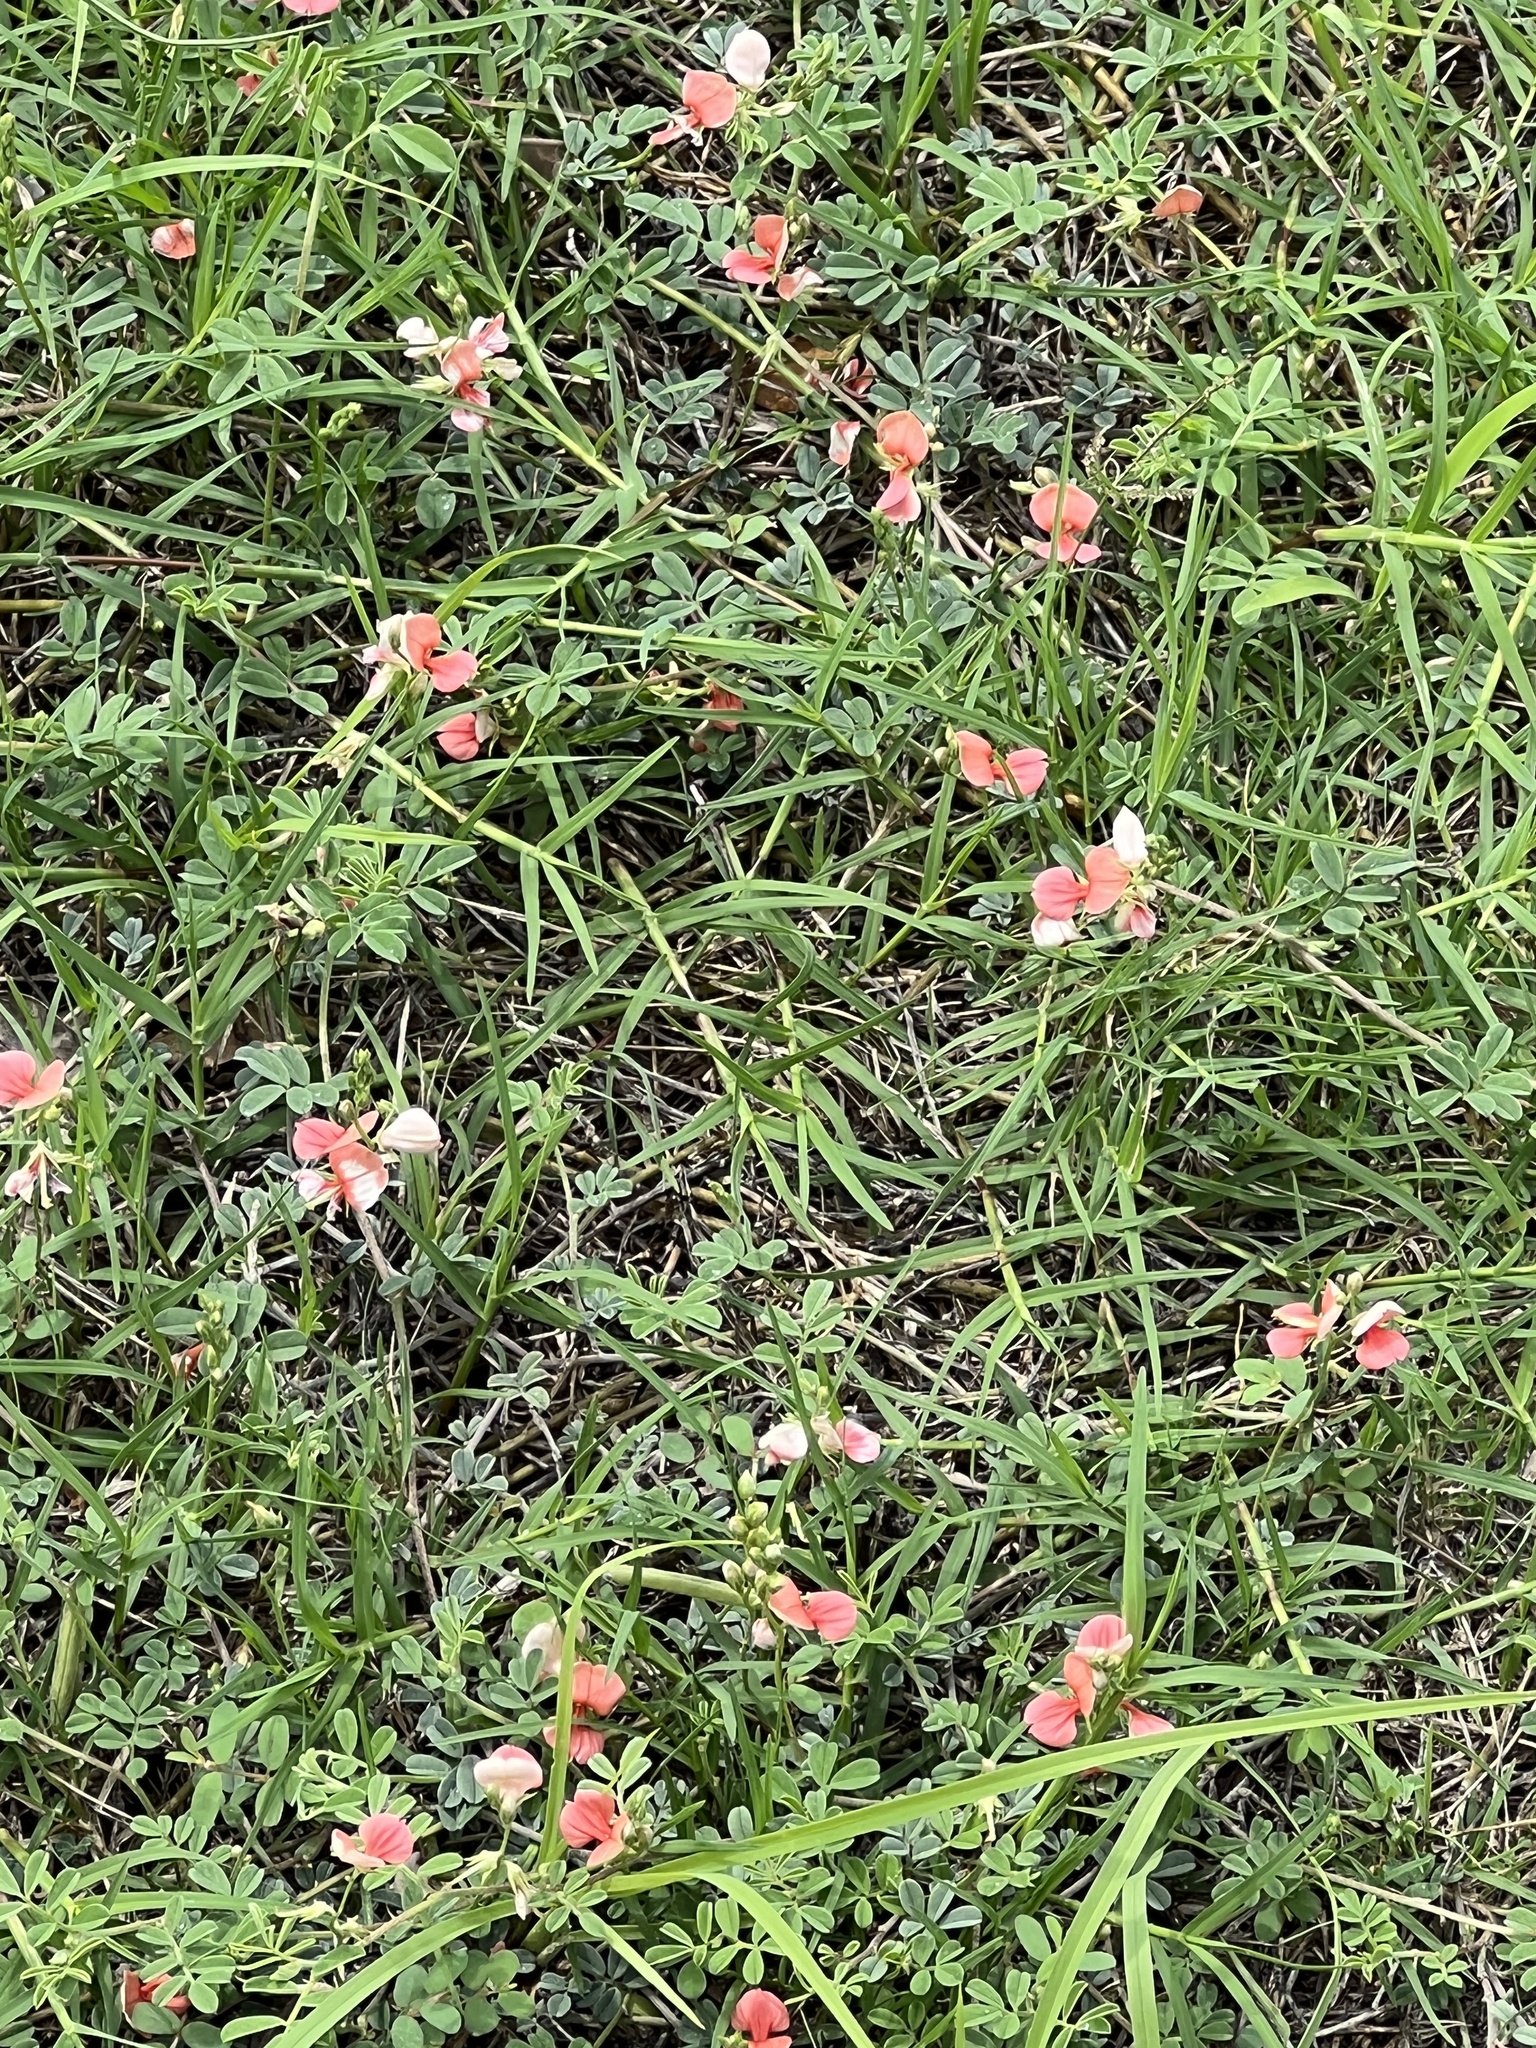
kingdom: Plantae
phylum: Tracheophyta
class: Magnoliopsida
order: Fabales
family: Fabaceae
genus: Indigofera
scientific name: Indigofera miniata
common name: Coast indigo
